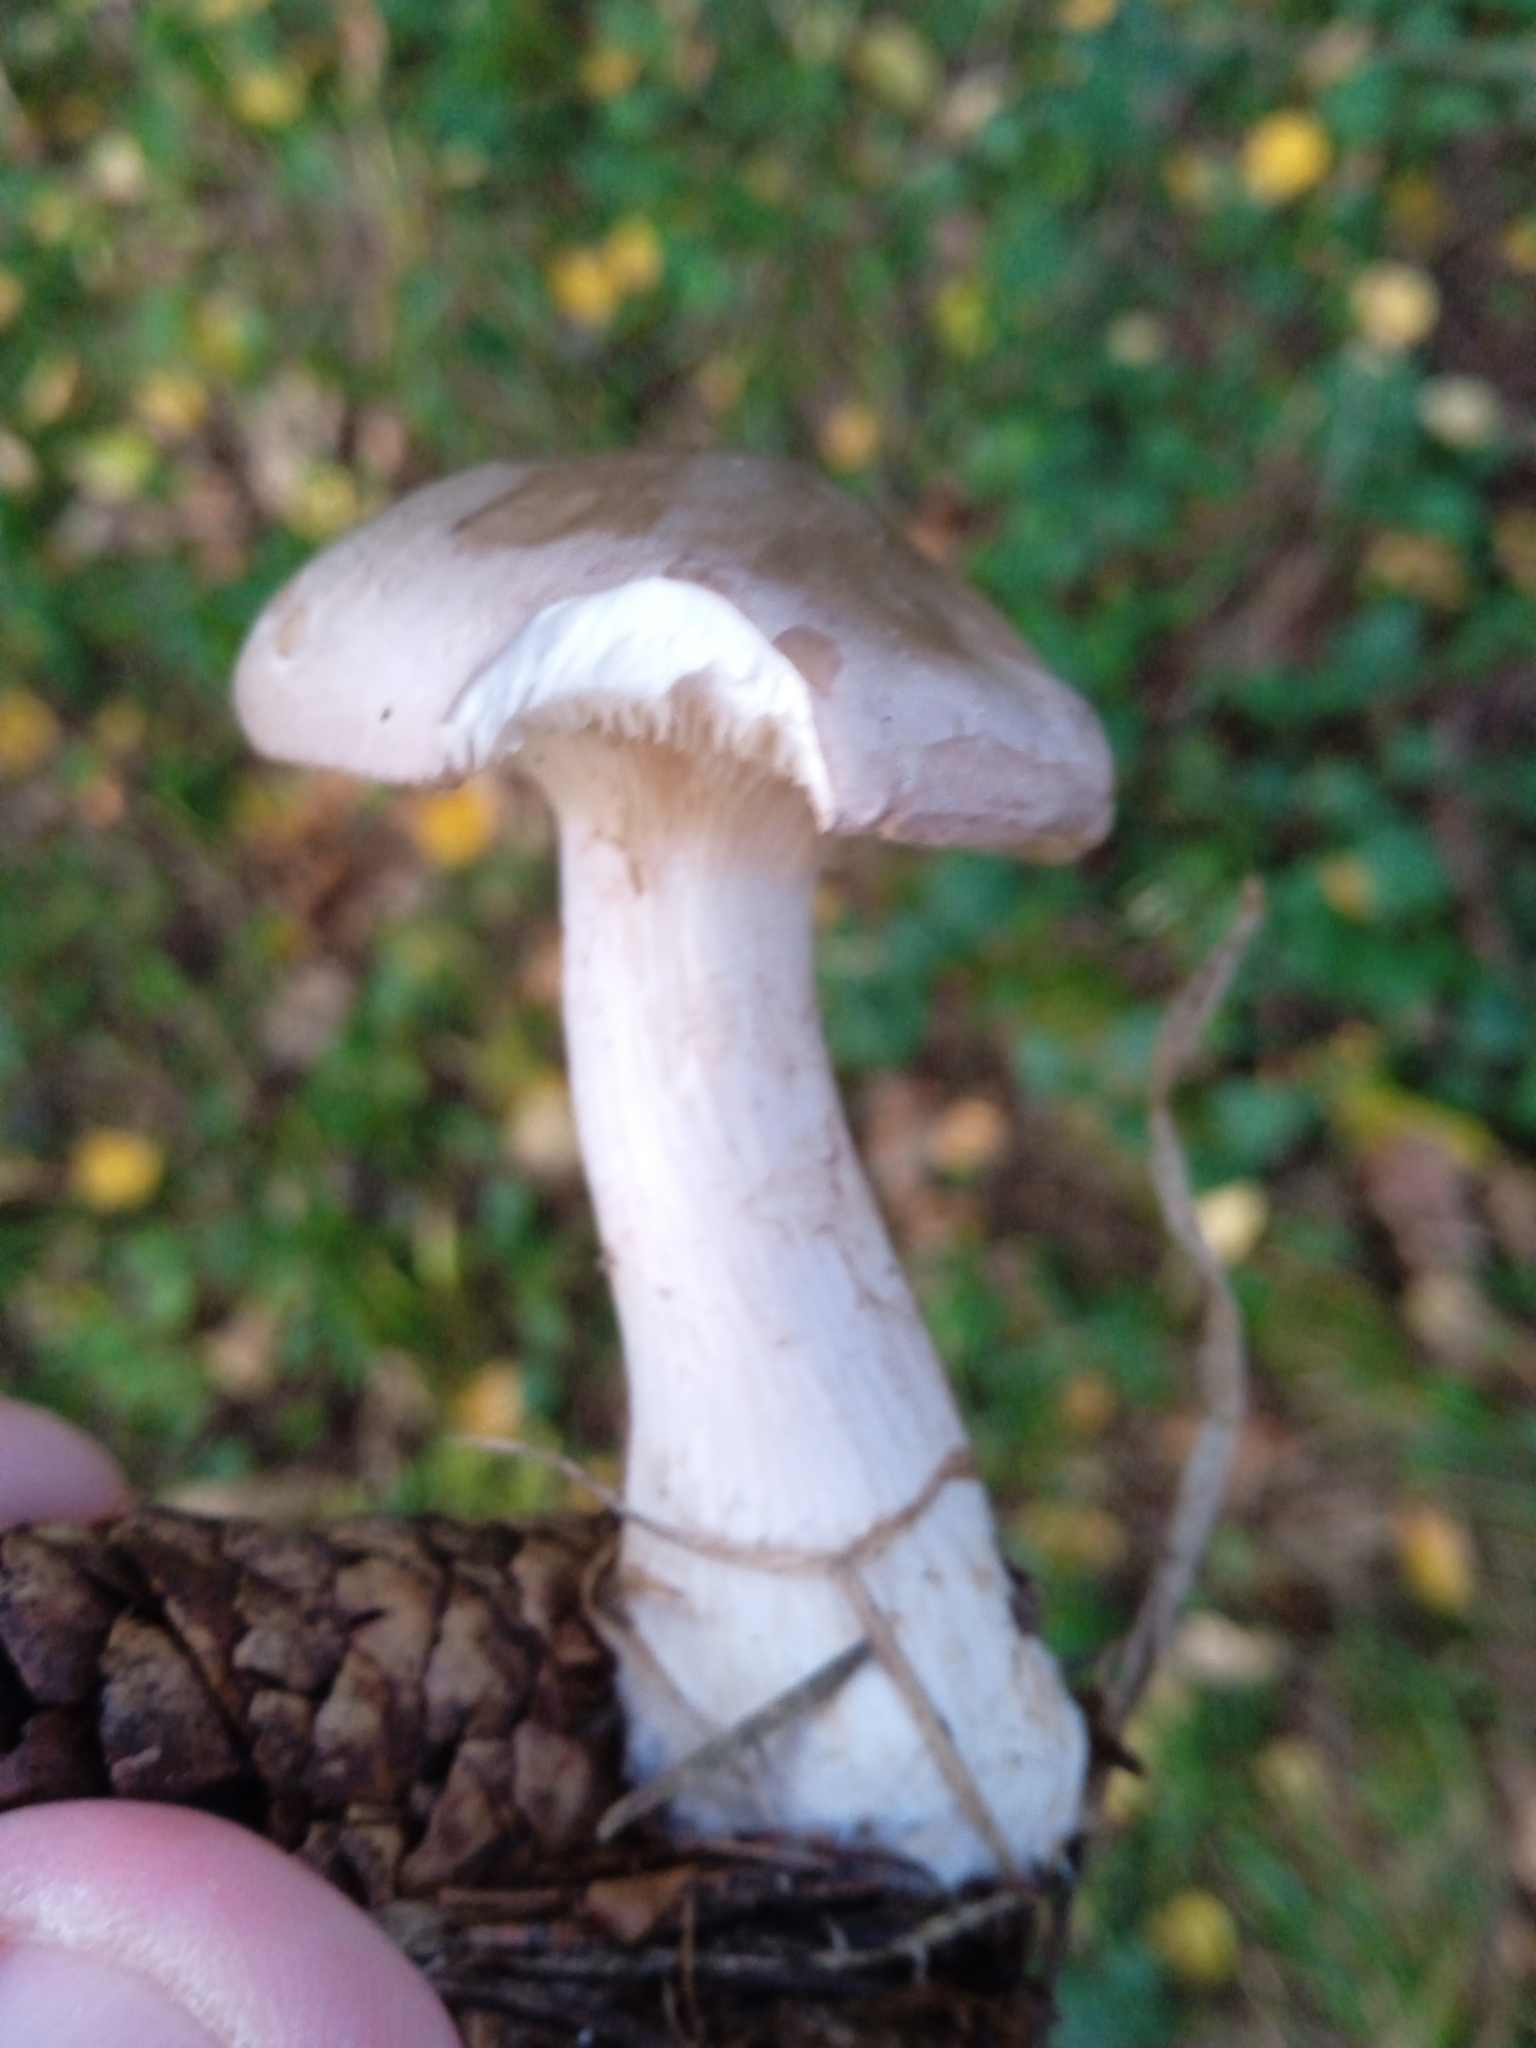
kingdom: Fungi
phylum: Basidiomycota
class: Agaricomycetes
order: Agaricales
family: Tricholomataceae
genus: Clitocybe
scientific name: Clitocybe nebularis
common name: Clouded agaric
